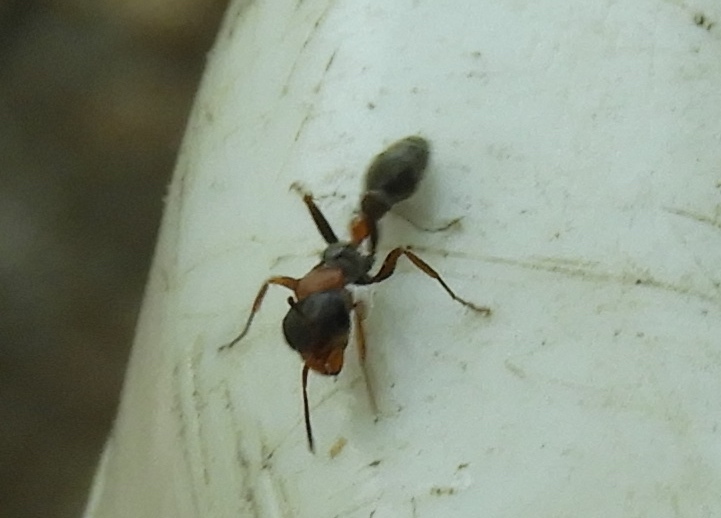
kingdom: Animalia
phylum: Arthropoda
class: Insecta
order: Hymenoptera
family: Formicidae
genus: Pseudomyrmex
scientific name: Pseudomyrmex gracilis
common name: Graceful twig ant
